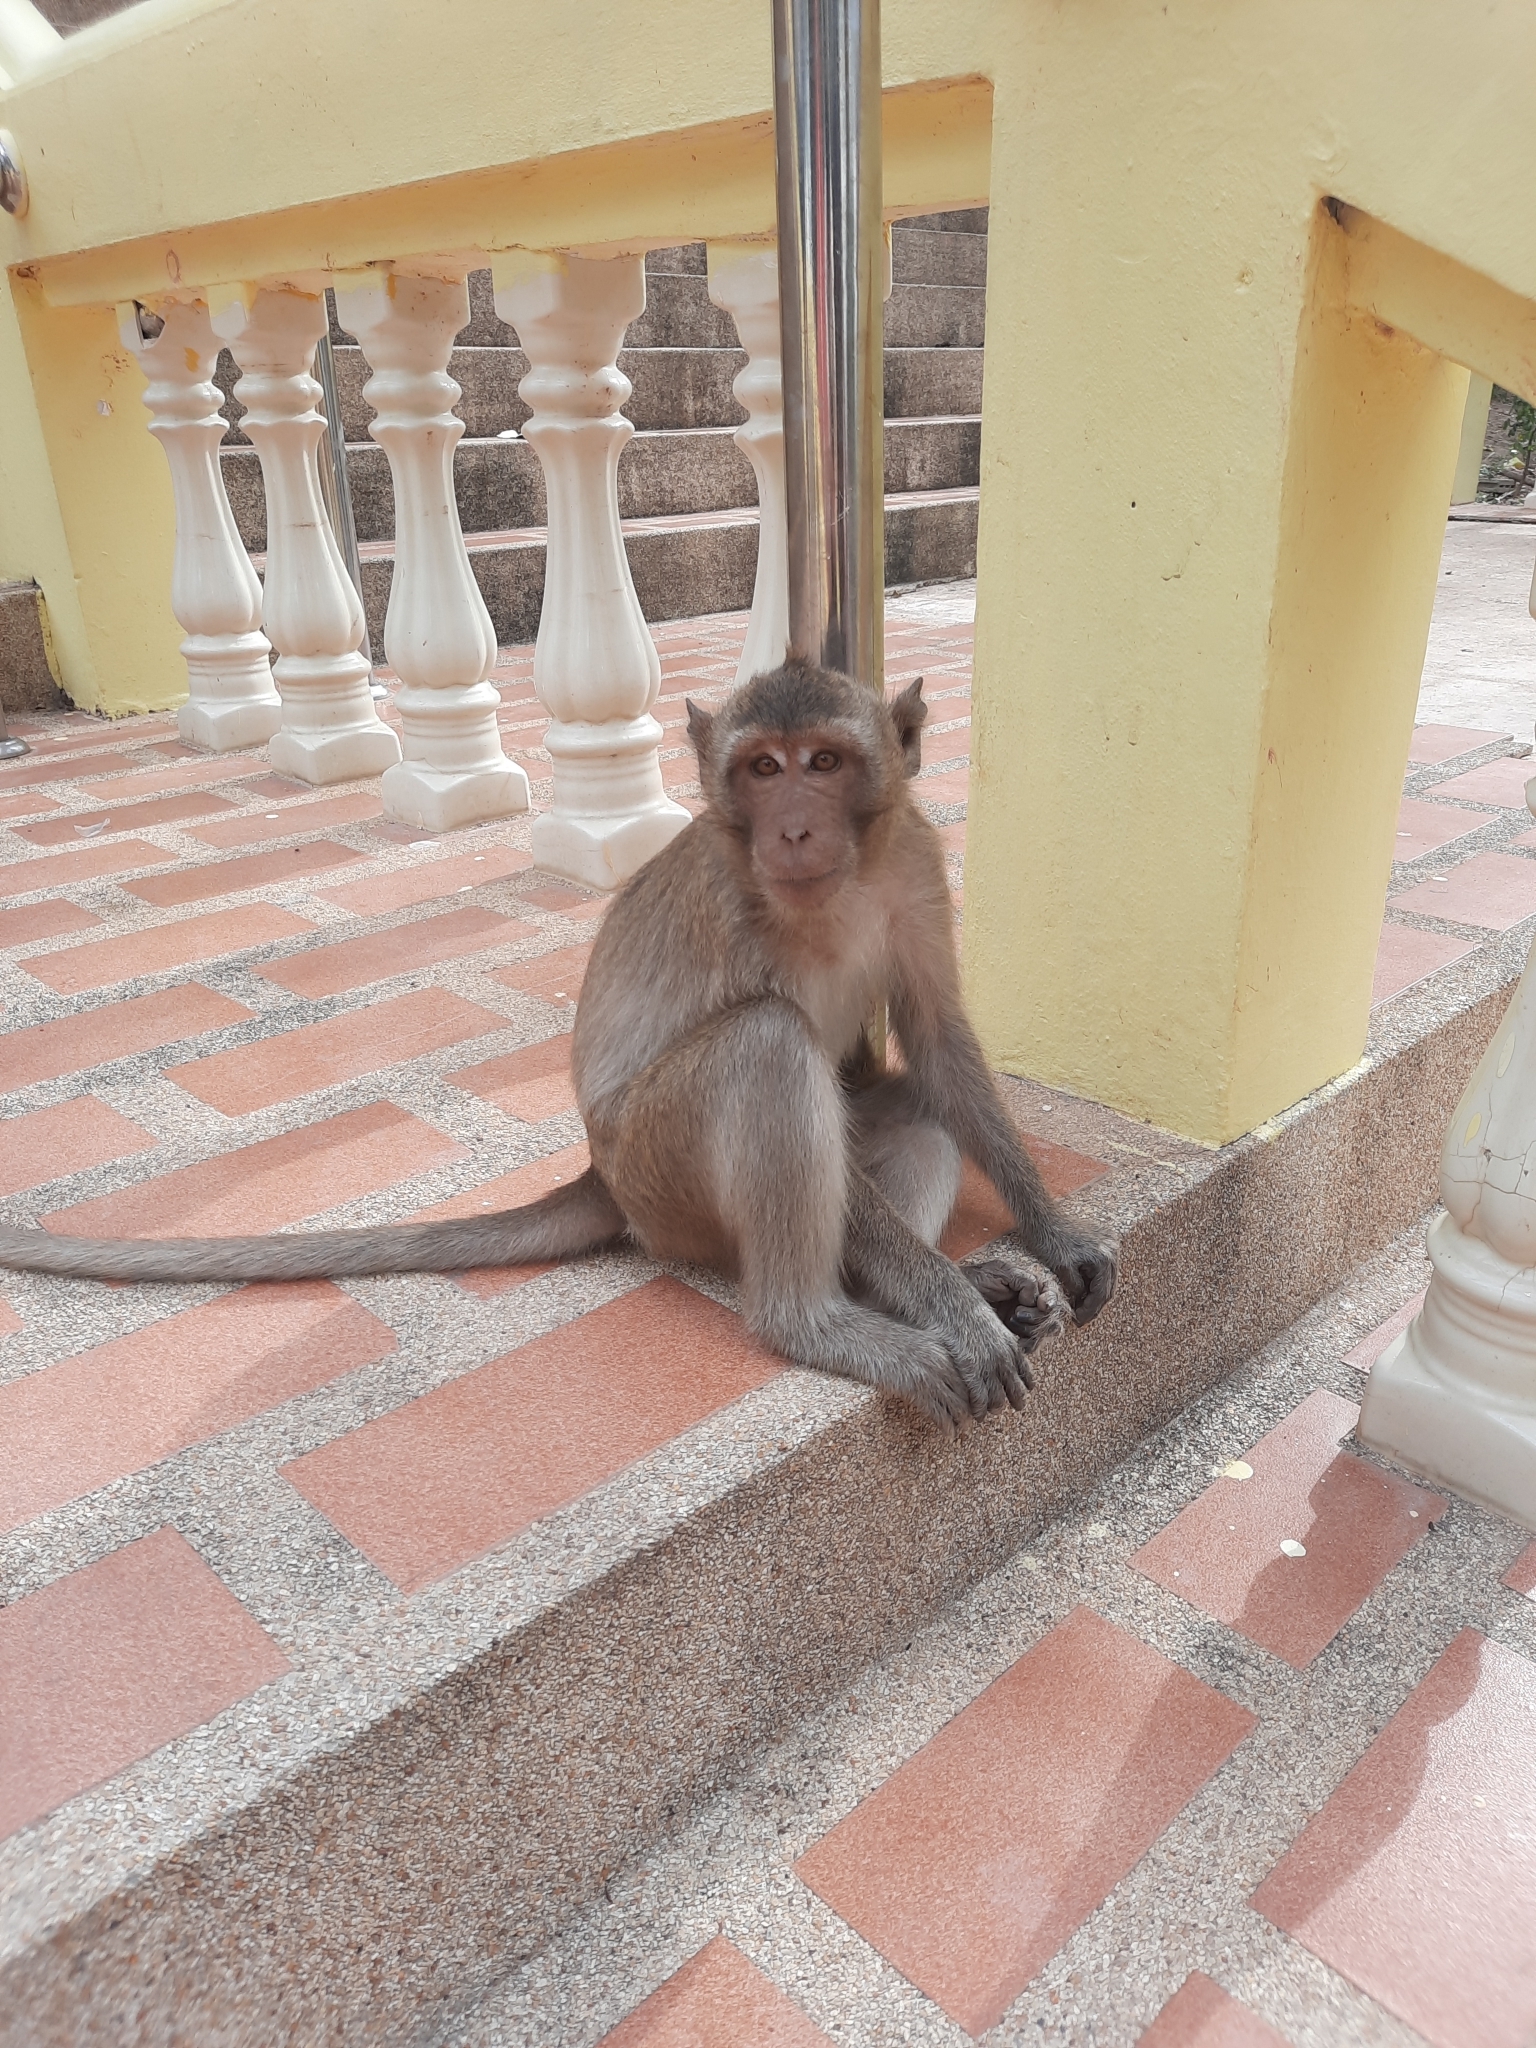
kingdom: Animalia
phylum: Chordata
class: Mammalia
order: Primates
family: Cercopithecidae
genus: Macaca
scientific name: Macaca fascicularis
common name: Crab-eating macaque
